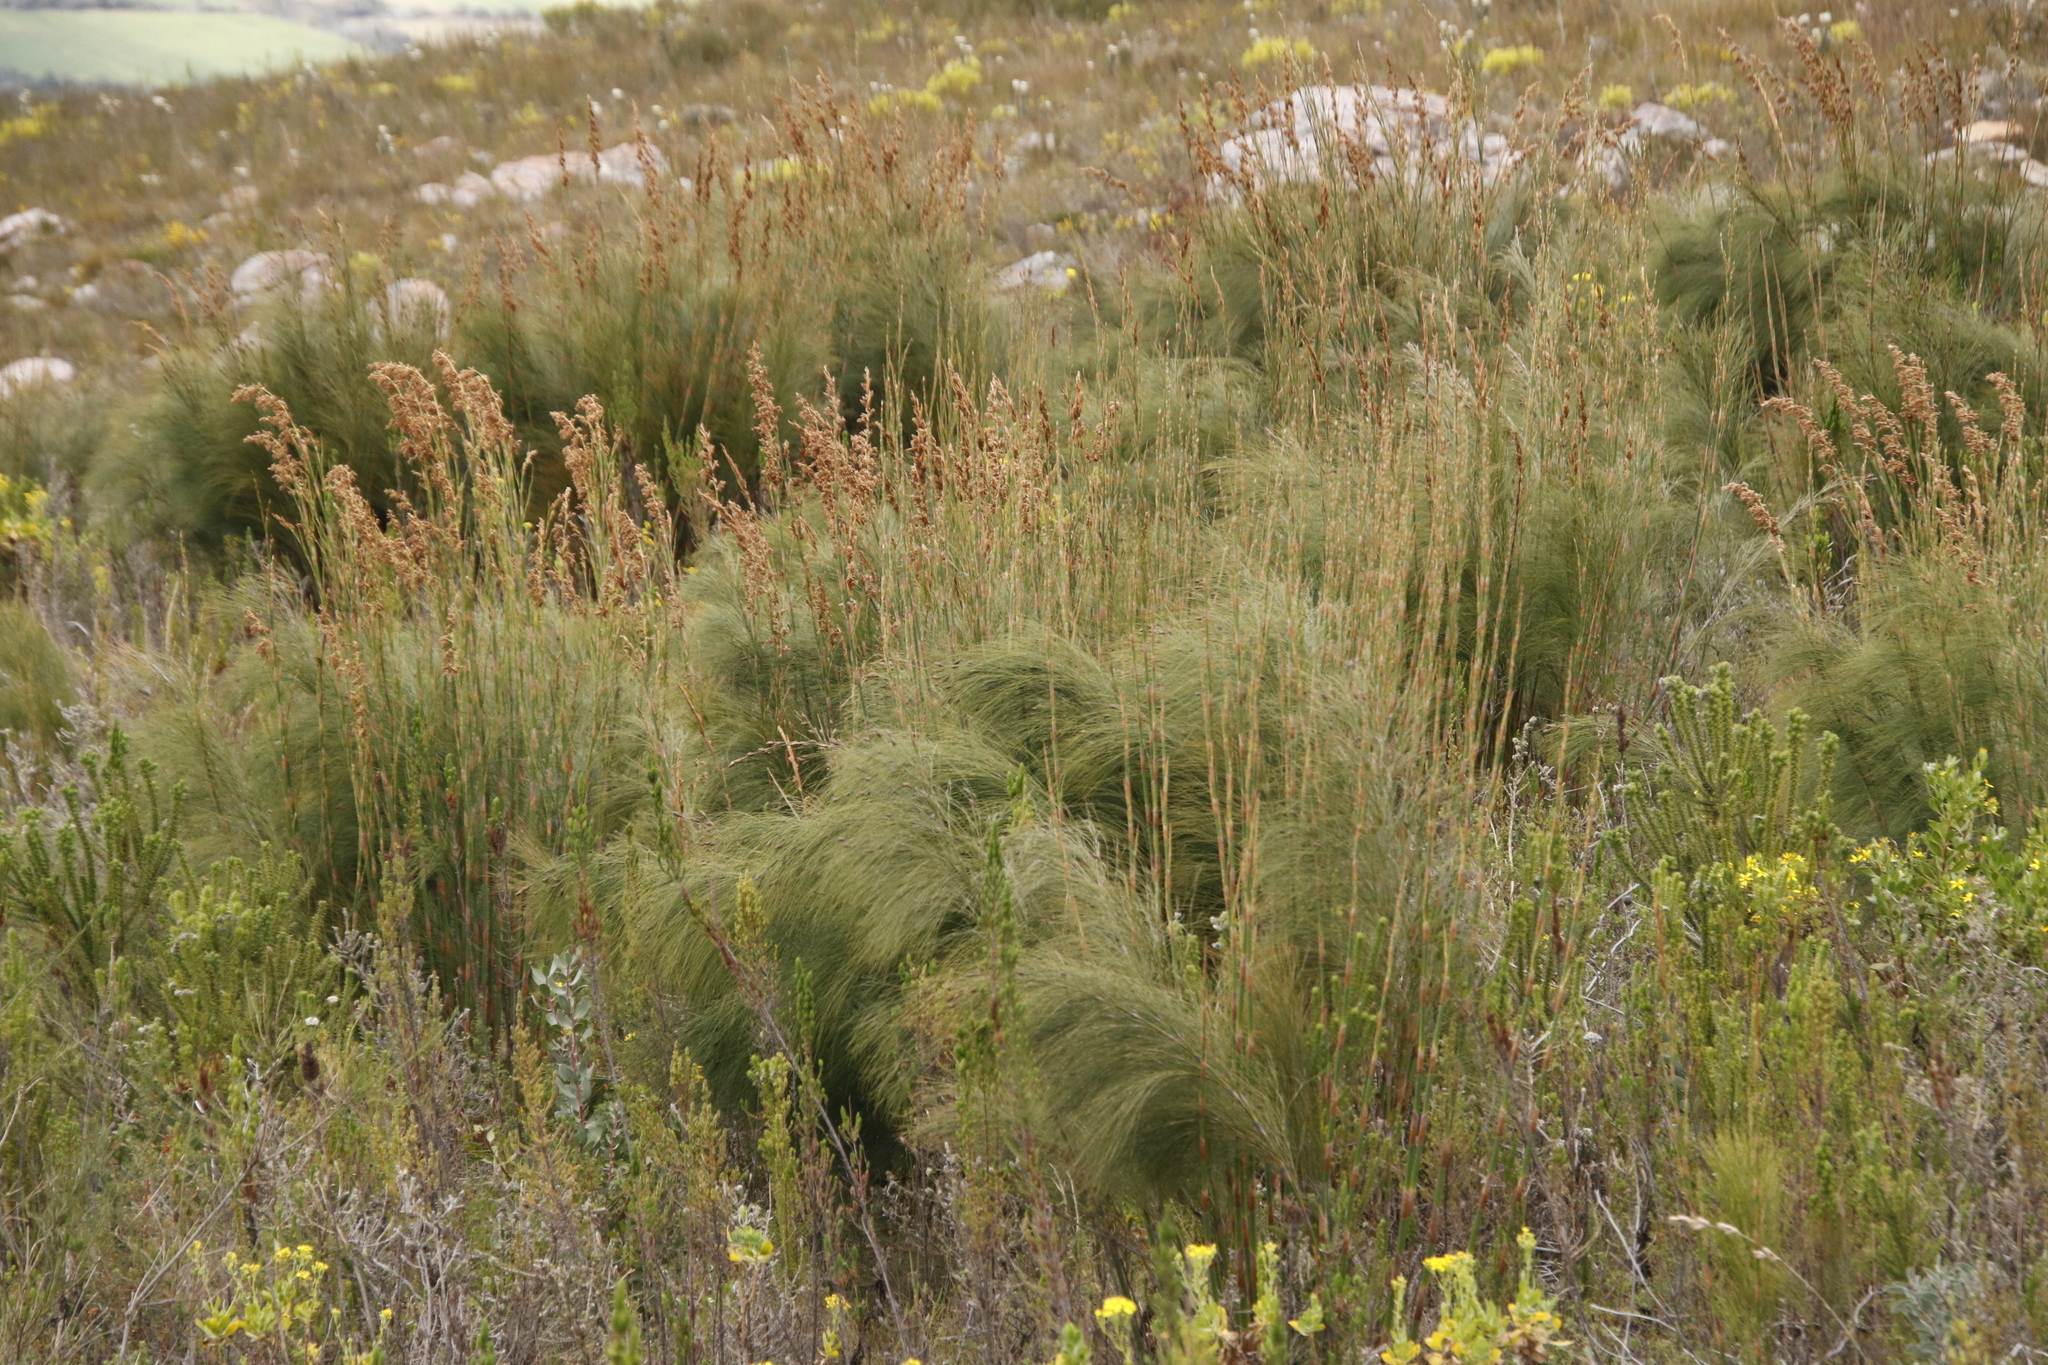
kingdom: Plantae
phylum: Tracheophyta
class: Liliopsida
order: Poales
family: Restionaceae
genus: Cannomois
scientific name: Cannomois virgata
